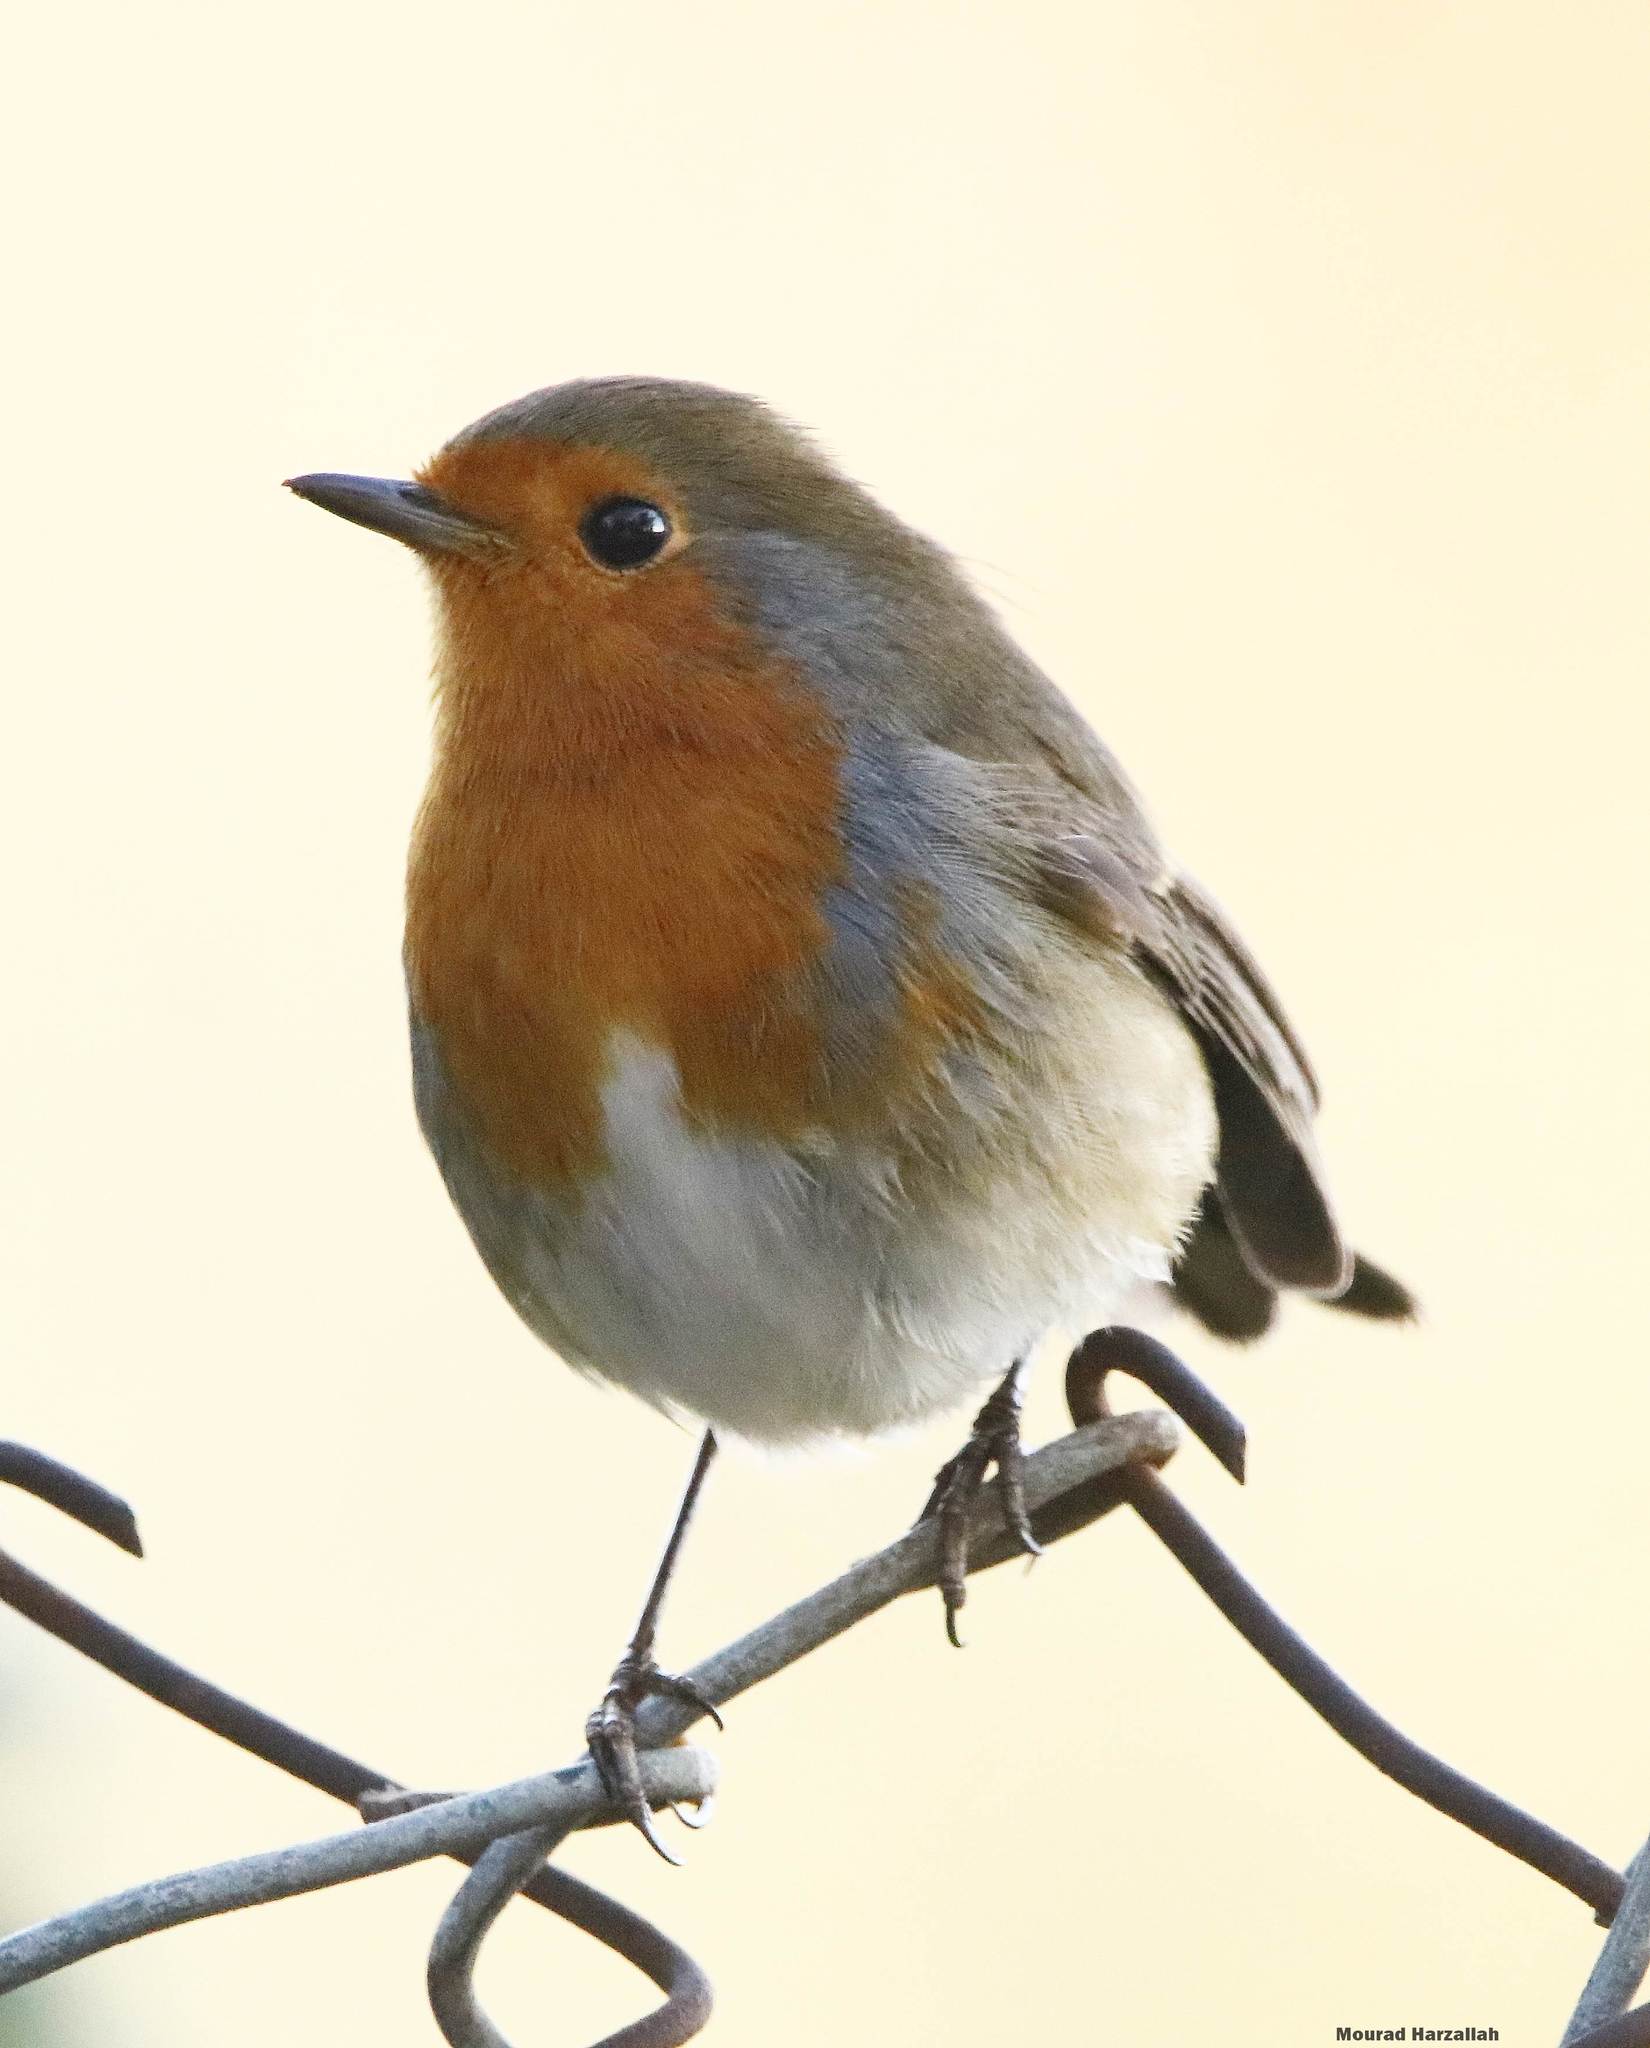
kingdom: Animalia
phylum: Chordata
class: Aves
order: Passeriformes
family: Muscicapidae
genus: Erithacus
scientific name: Erithacus rubecula
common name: European robin
